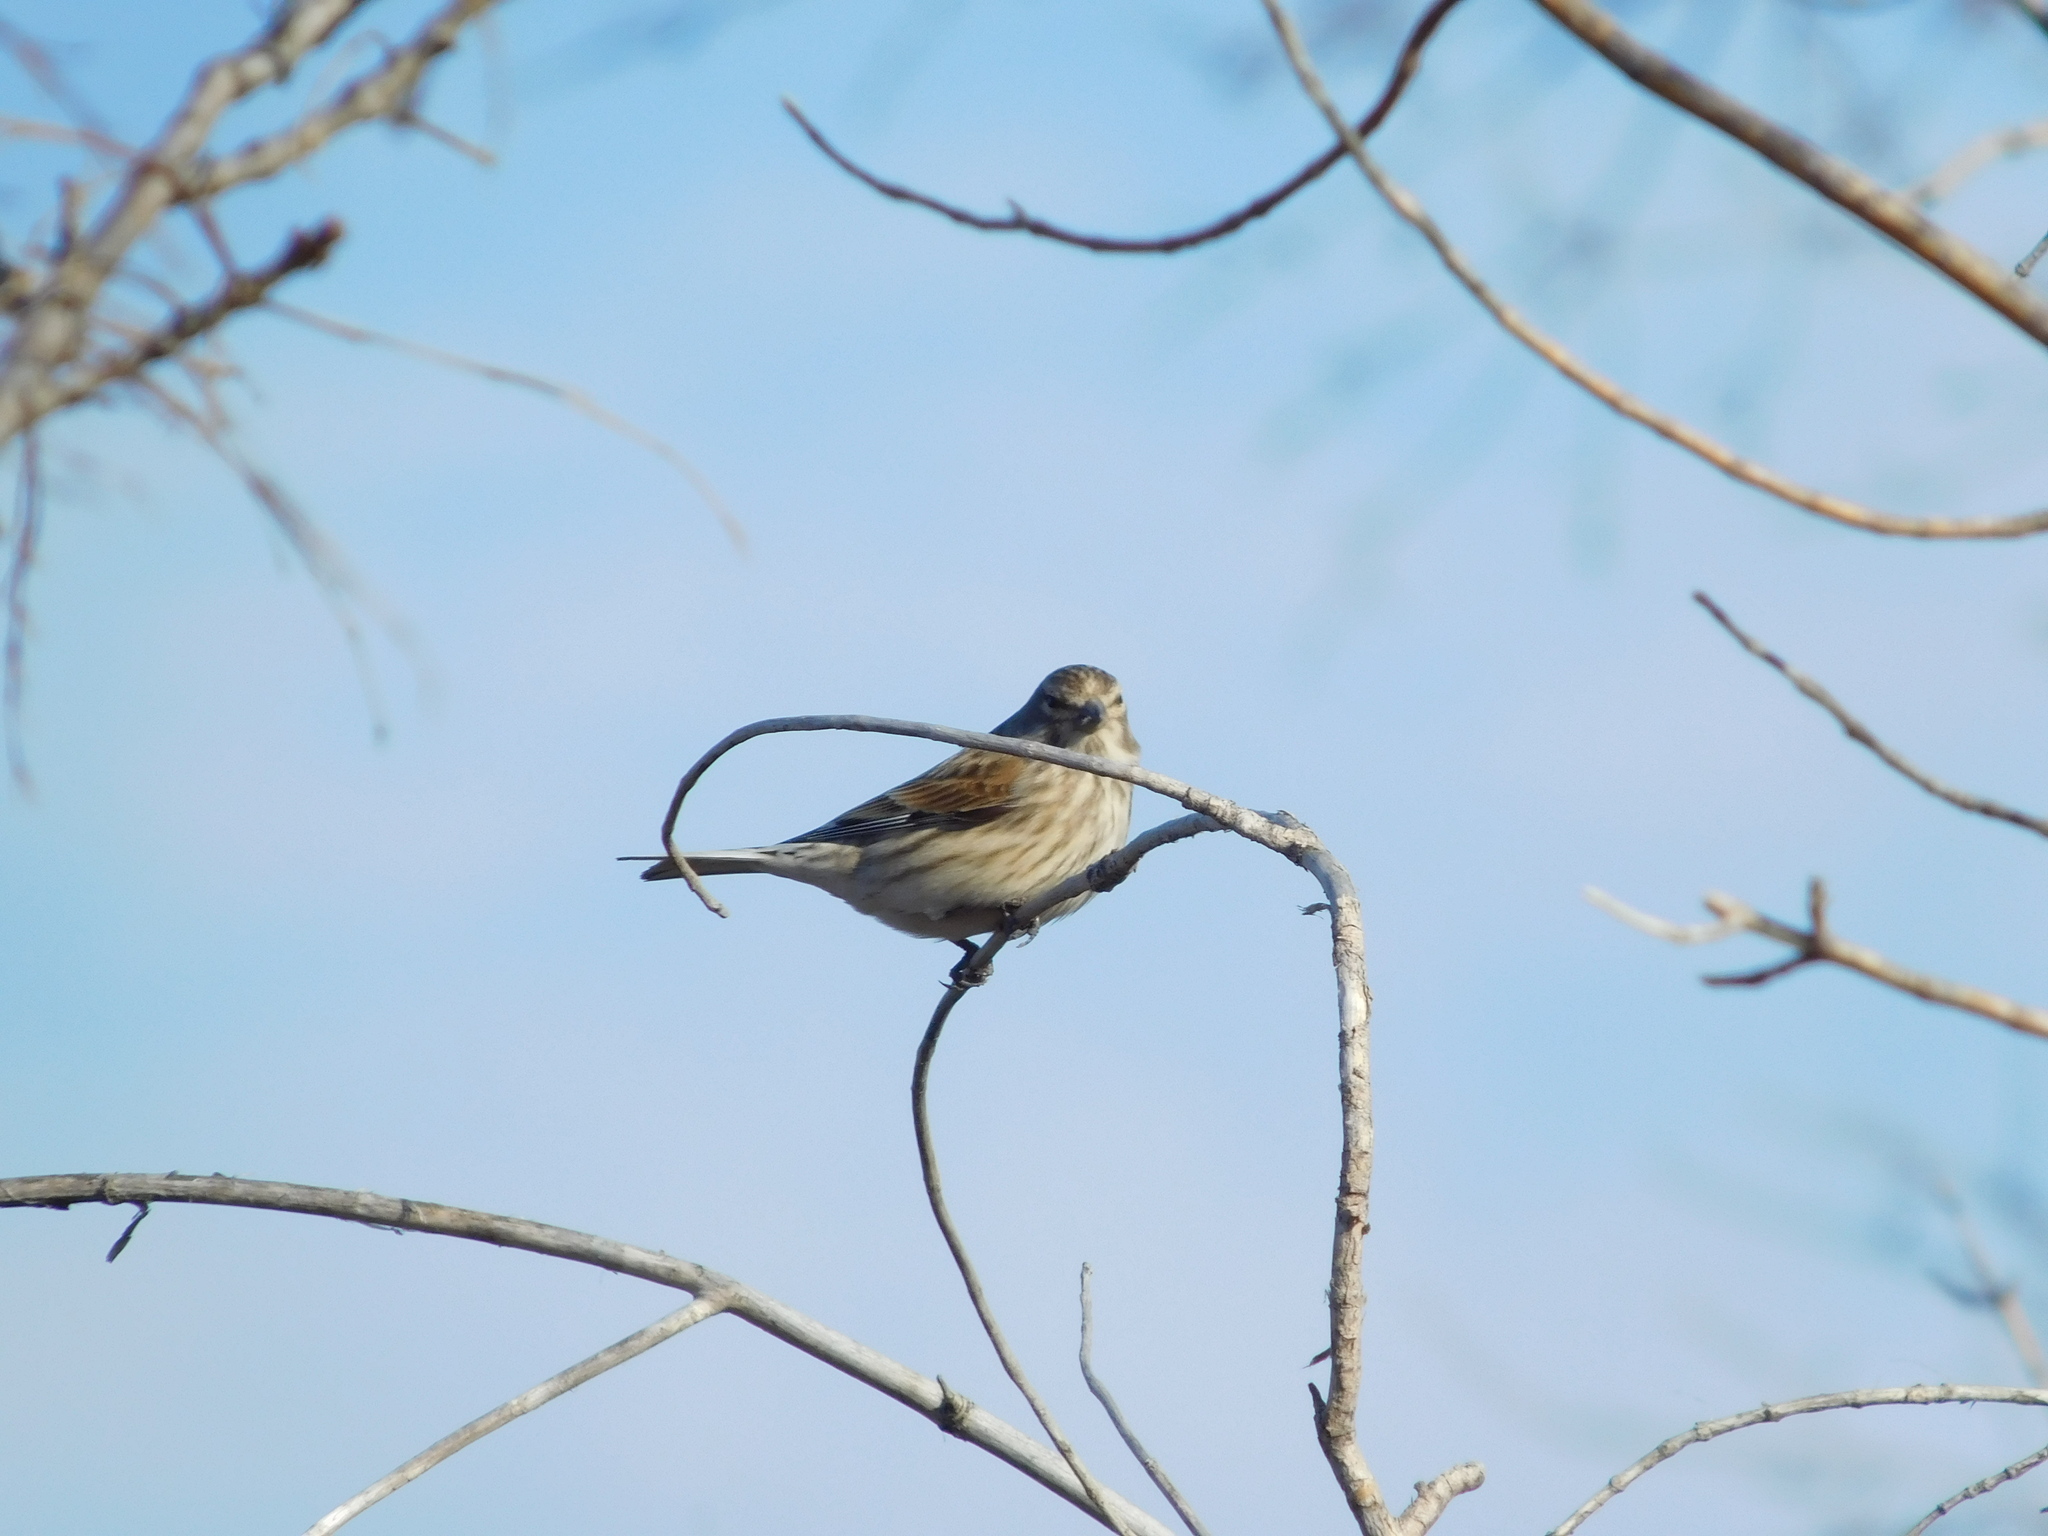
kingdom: Animalia
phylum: Chordata
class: Aves
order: Passeriformes
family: Fringillidae
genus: Linaria
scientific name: Linaria cannabina
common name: Common linnet
